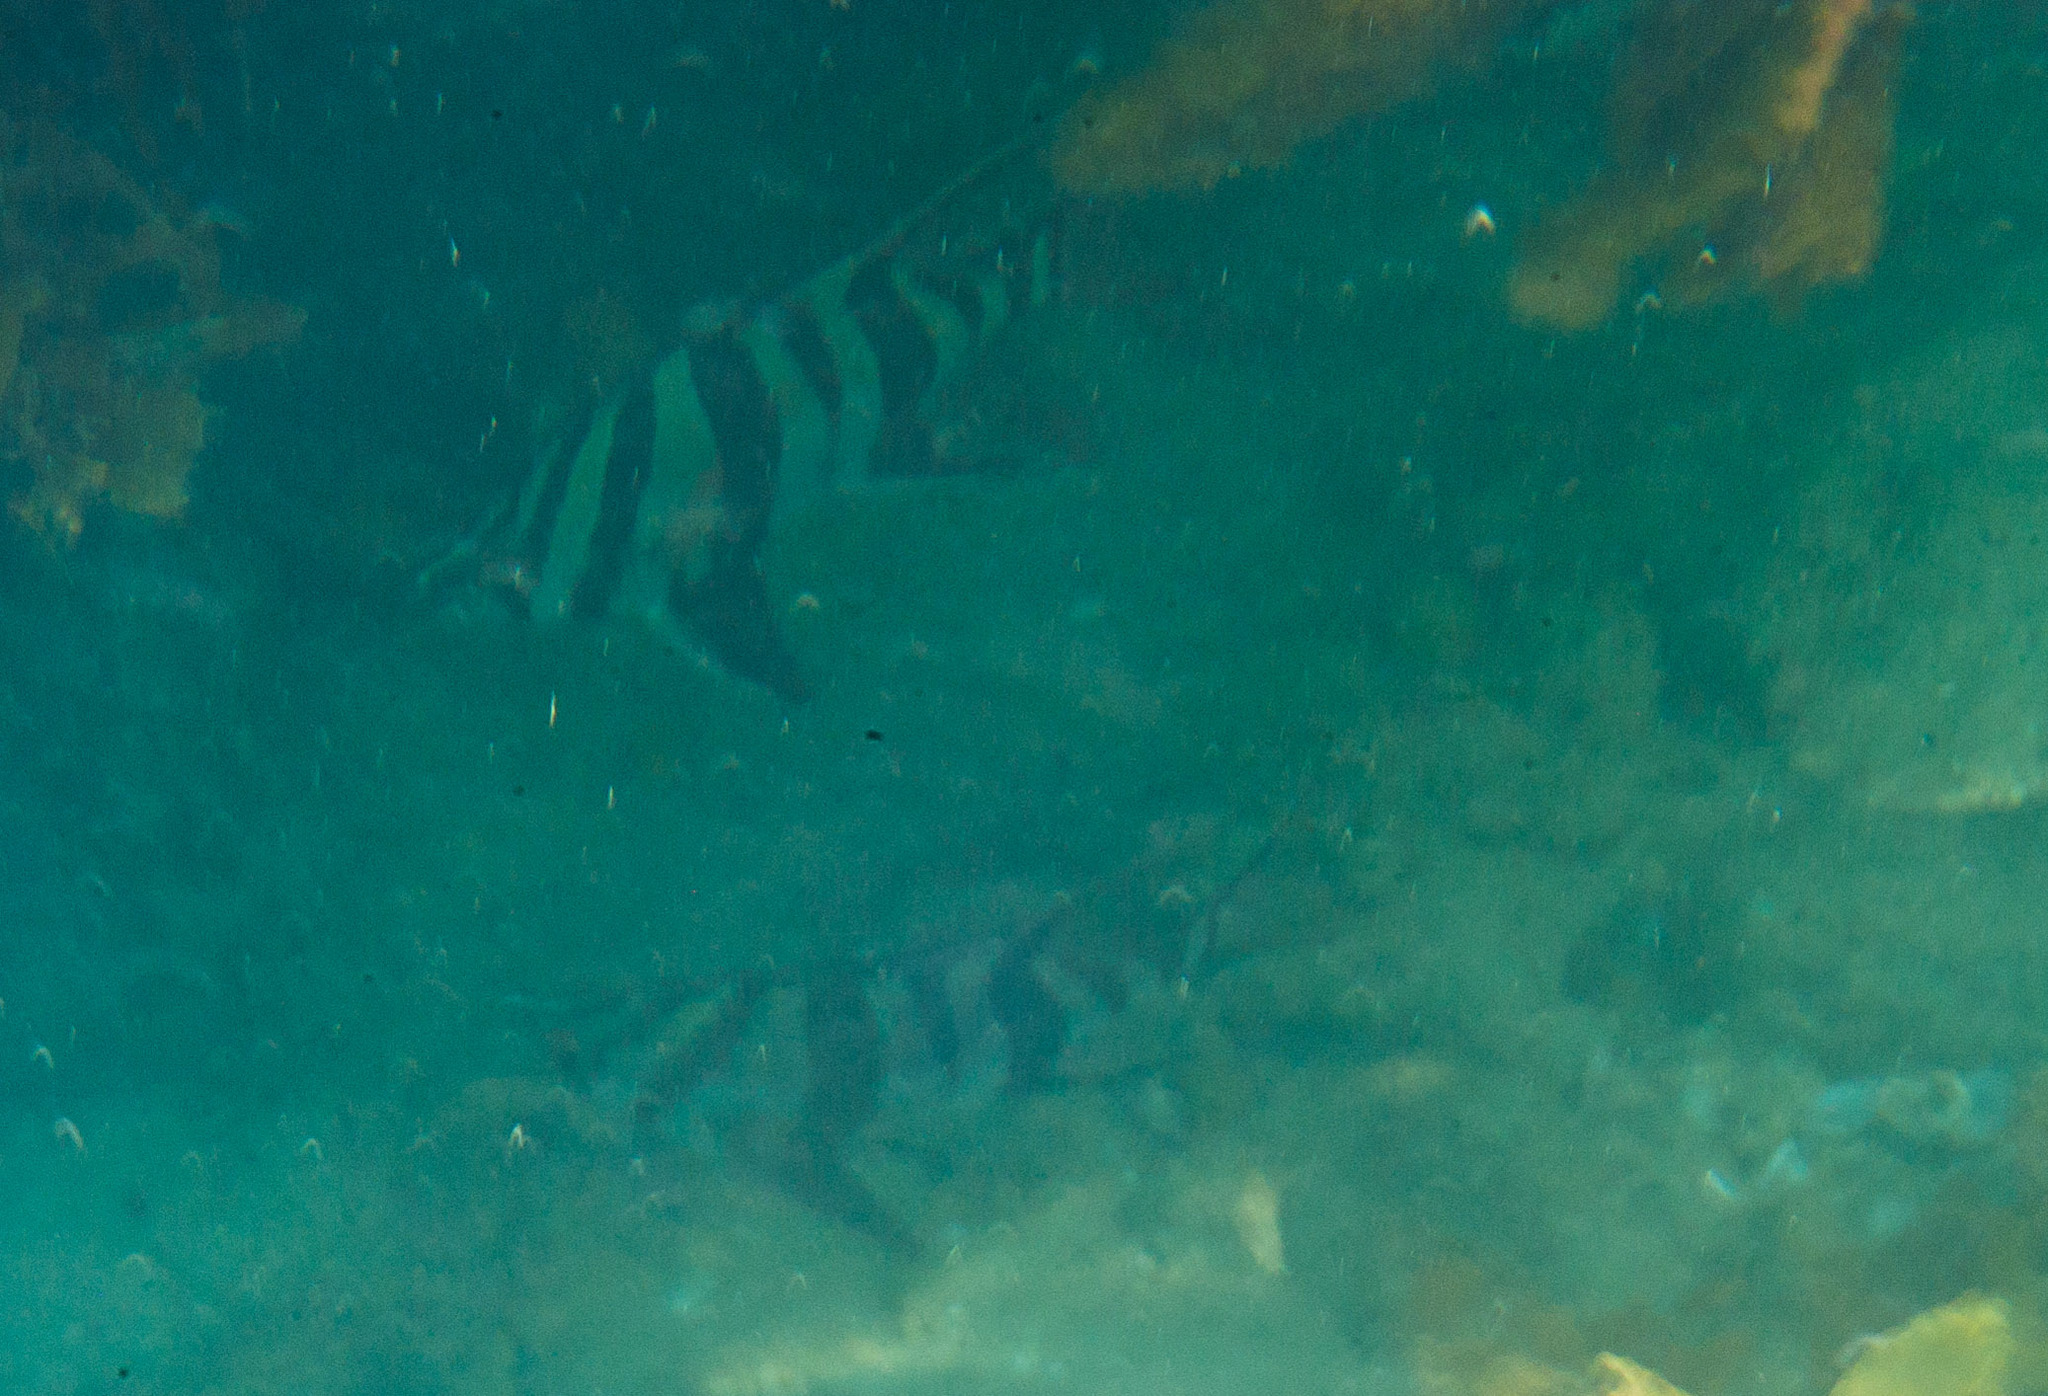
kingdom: Animalia
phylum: Chordata
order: Perciformes
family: Enoplosidae
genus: Enoplosus
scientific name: Enoplosus armatus
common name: Old wife
